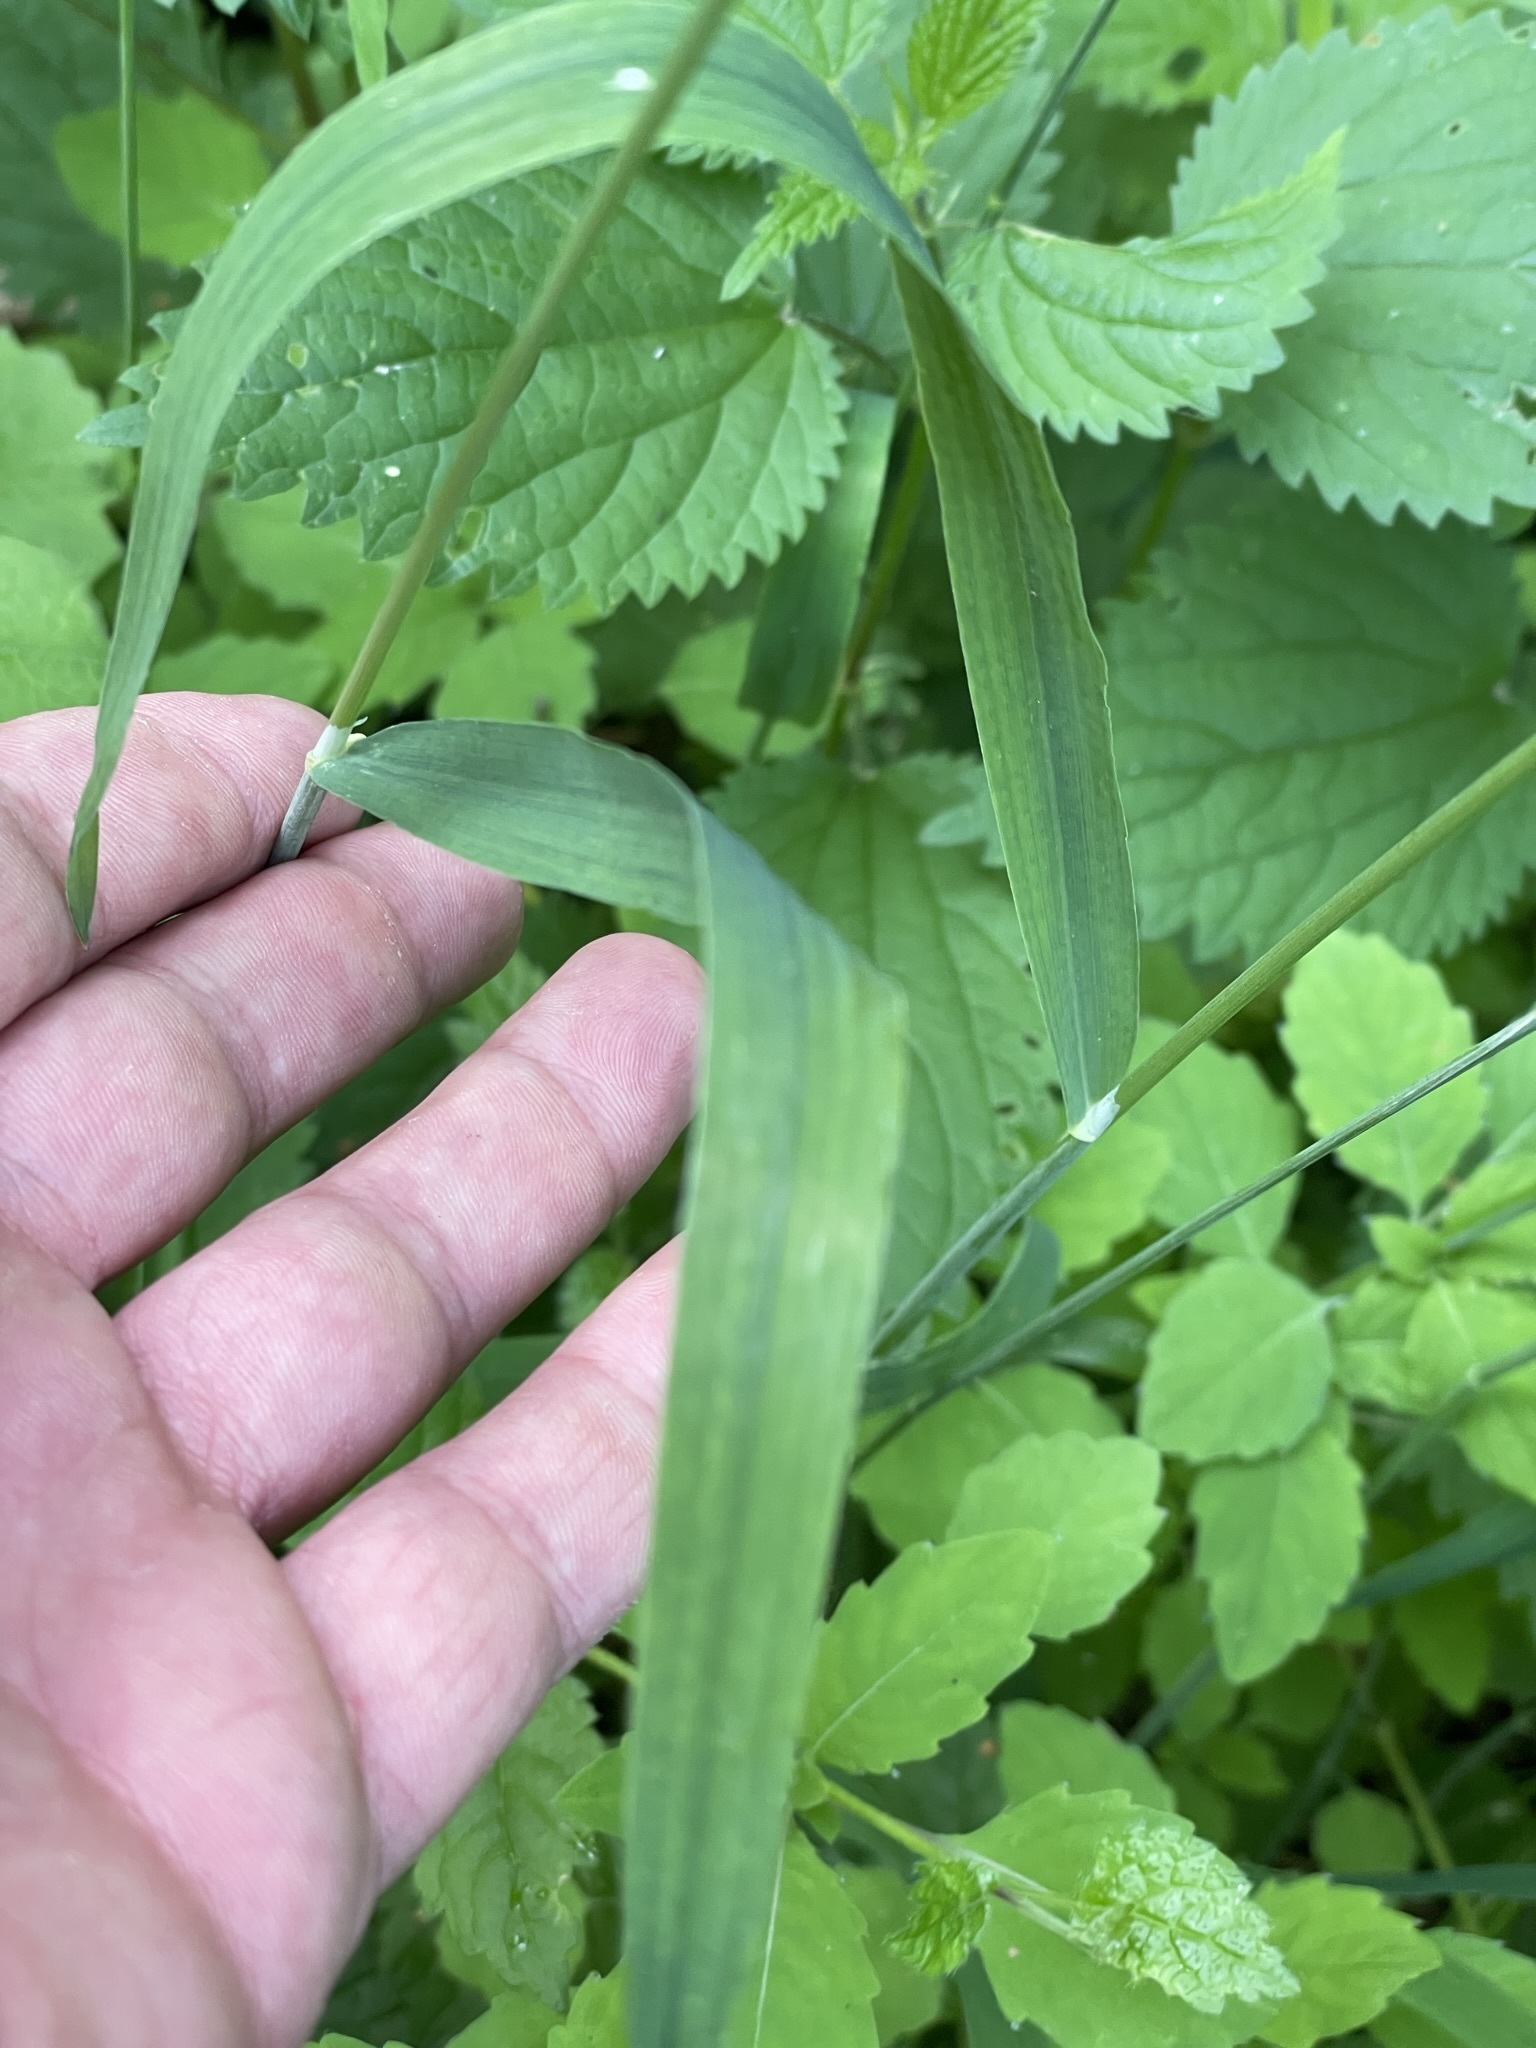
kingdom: Plantae
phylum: Tracheophyta
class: Liliopsida
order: Poales
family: Poaceae
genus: Milium
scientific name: Milium effusum
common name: Wood millet
